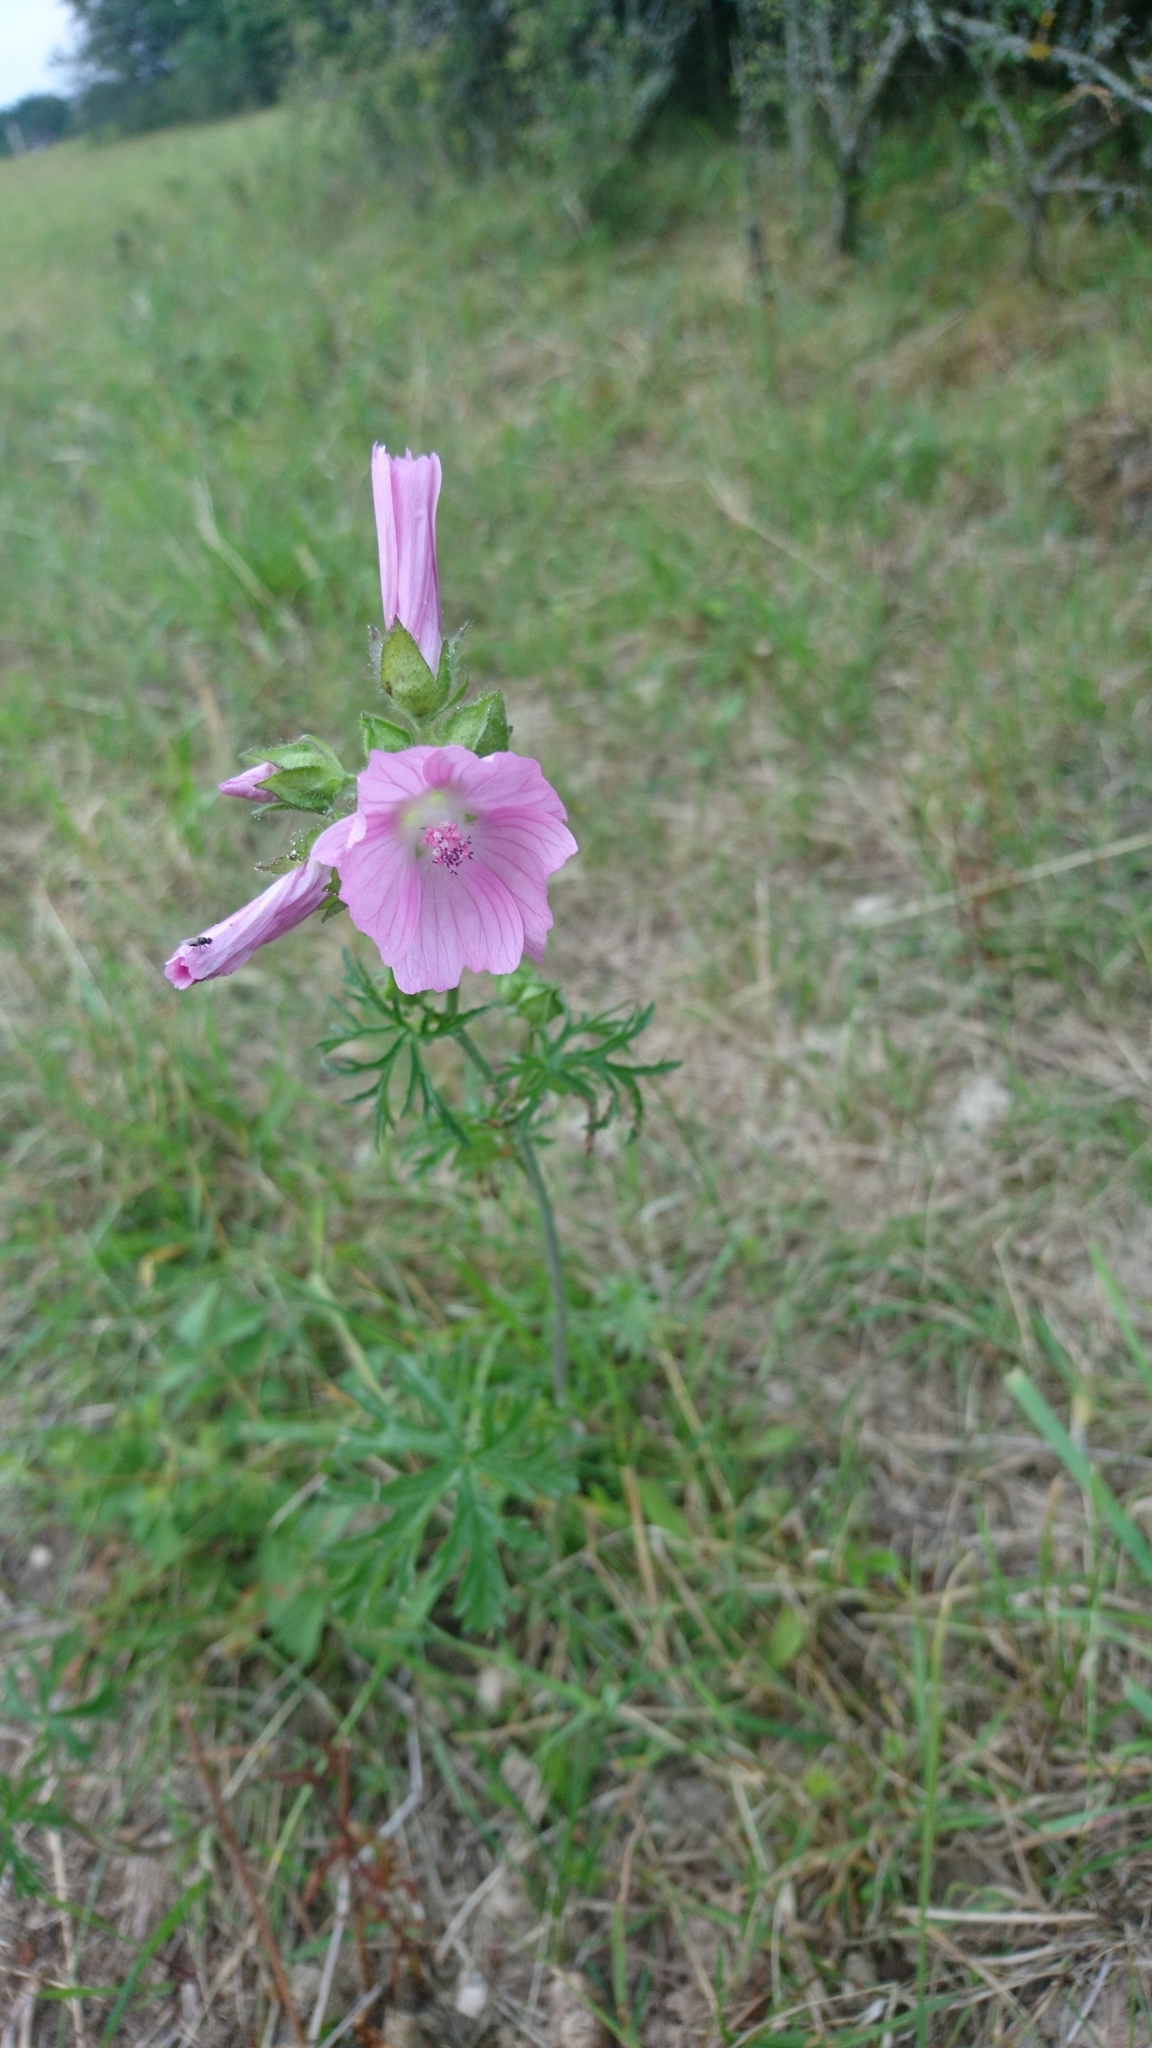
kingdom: Plantae
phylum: Tracheophyta
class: Magnoliopsida
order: Malvales
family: Malvaceae
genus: Malva
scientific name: Malva moschata
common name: Musk mallow
